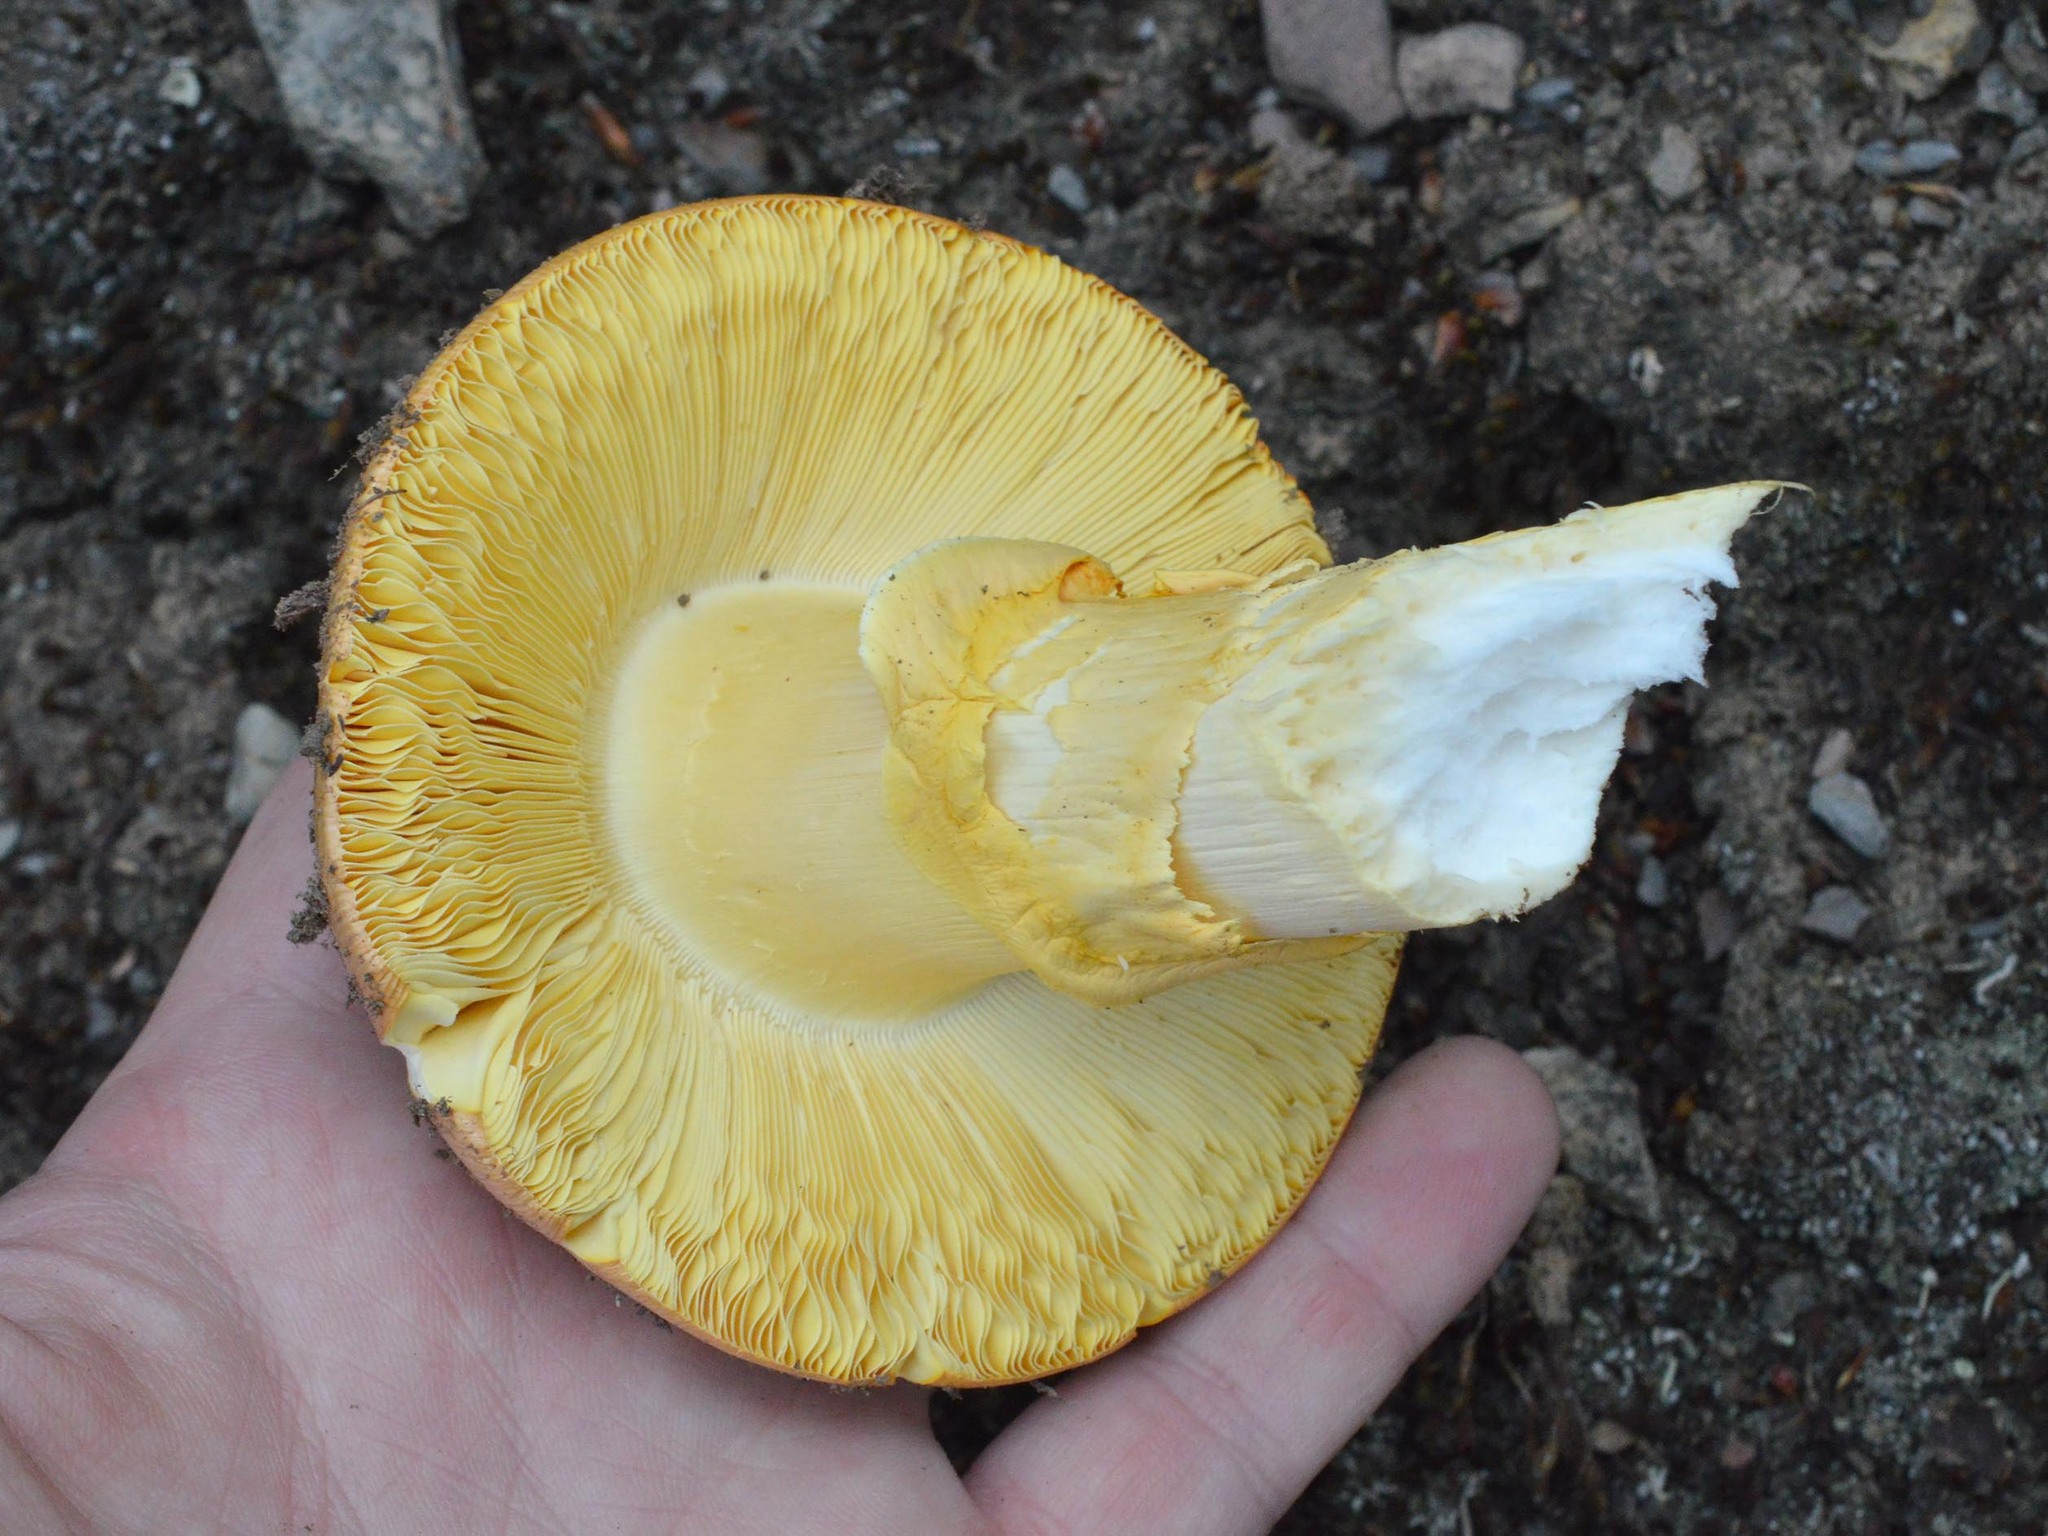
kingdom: Fungi
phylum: Basidiomycota
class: Agaricomycetes
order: Agaricales
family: Amanitaceae
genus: Amanita
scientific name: Amanita caesarea
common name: Caesar's amanita
